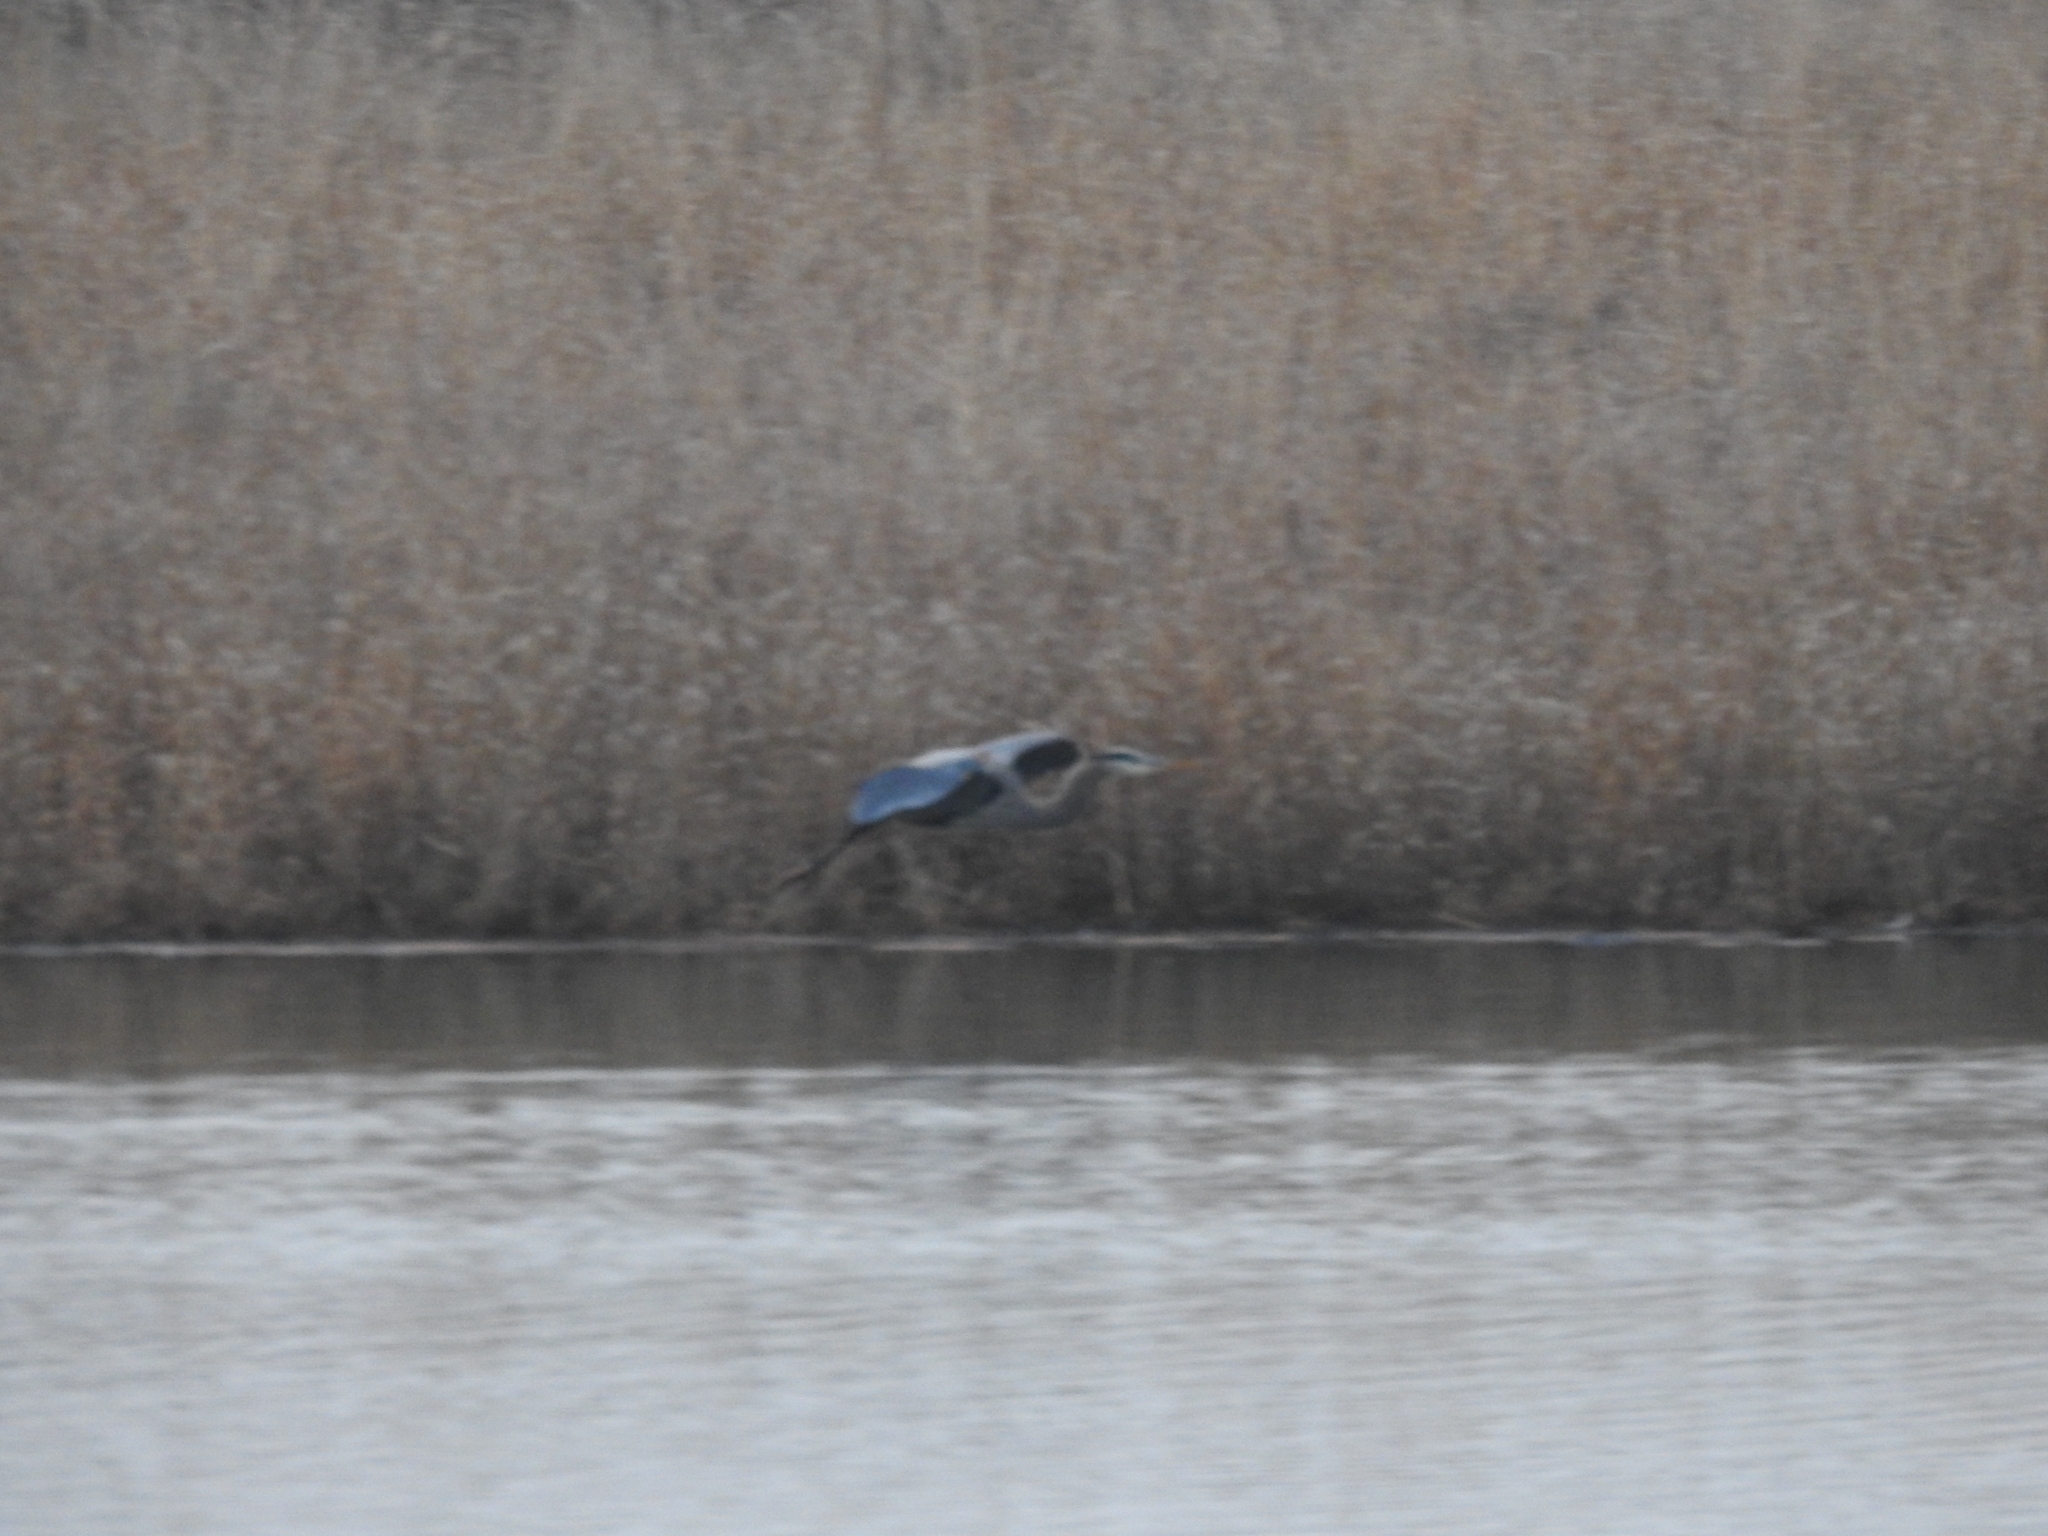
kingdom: Animalia
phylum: Chordata
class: Aves
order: Pelecaniformes
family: Ardeidae
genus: Ardea
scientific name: Ardea herodias
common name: Great blue heron
